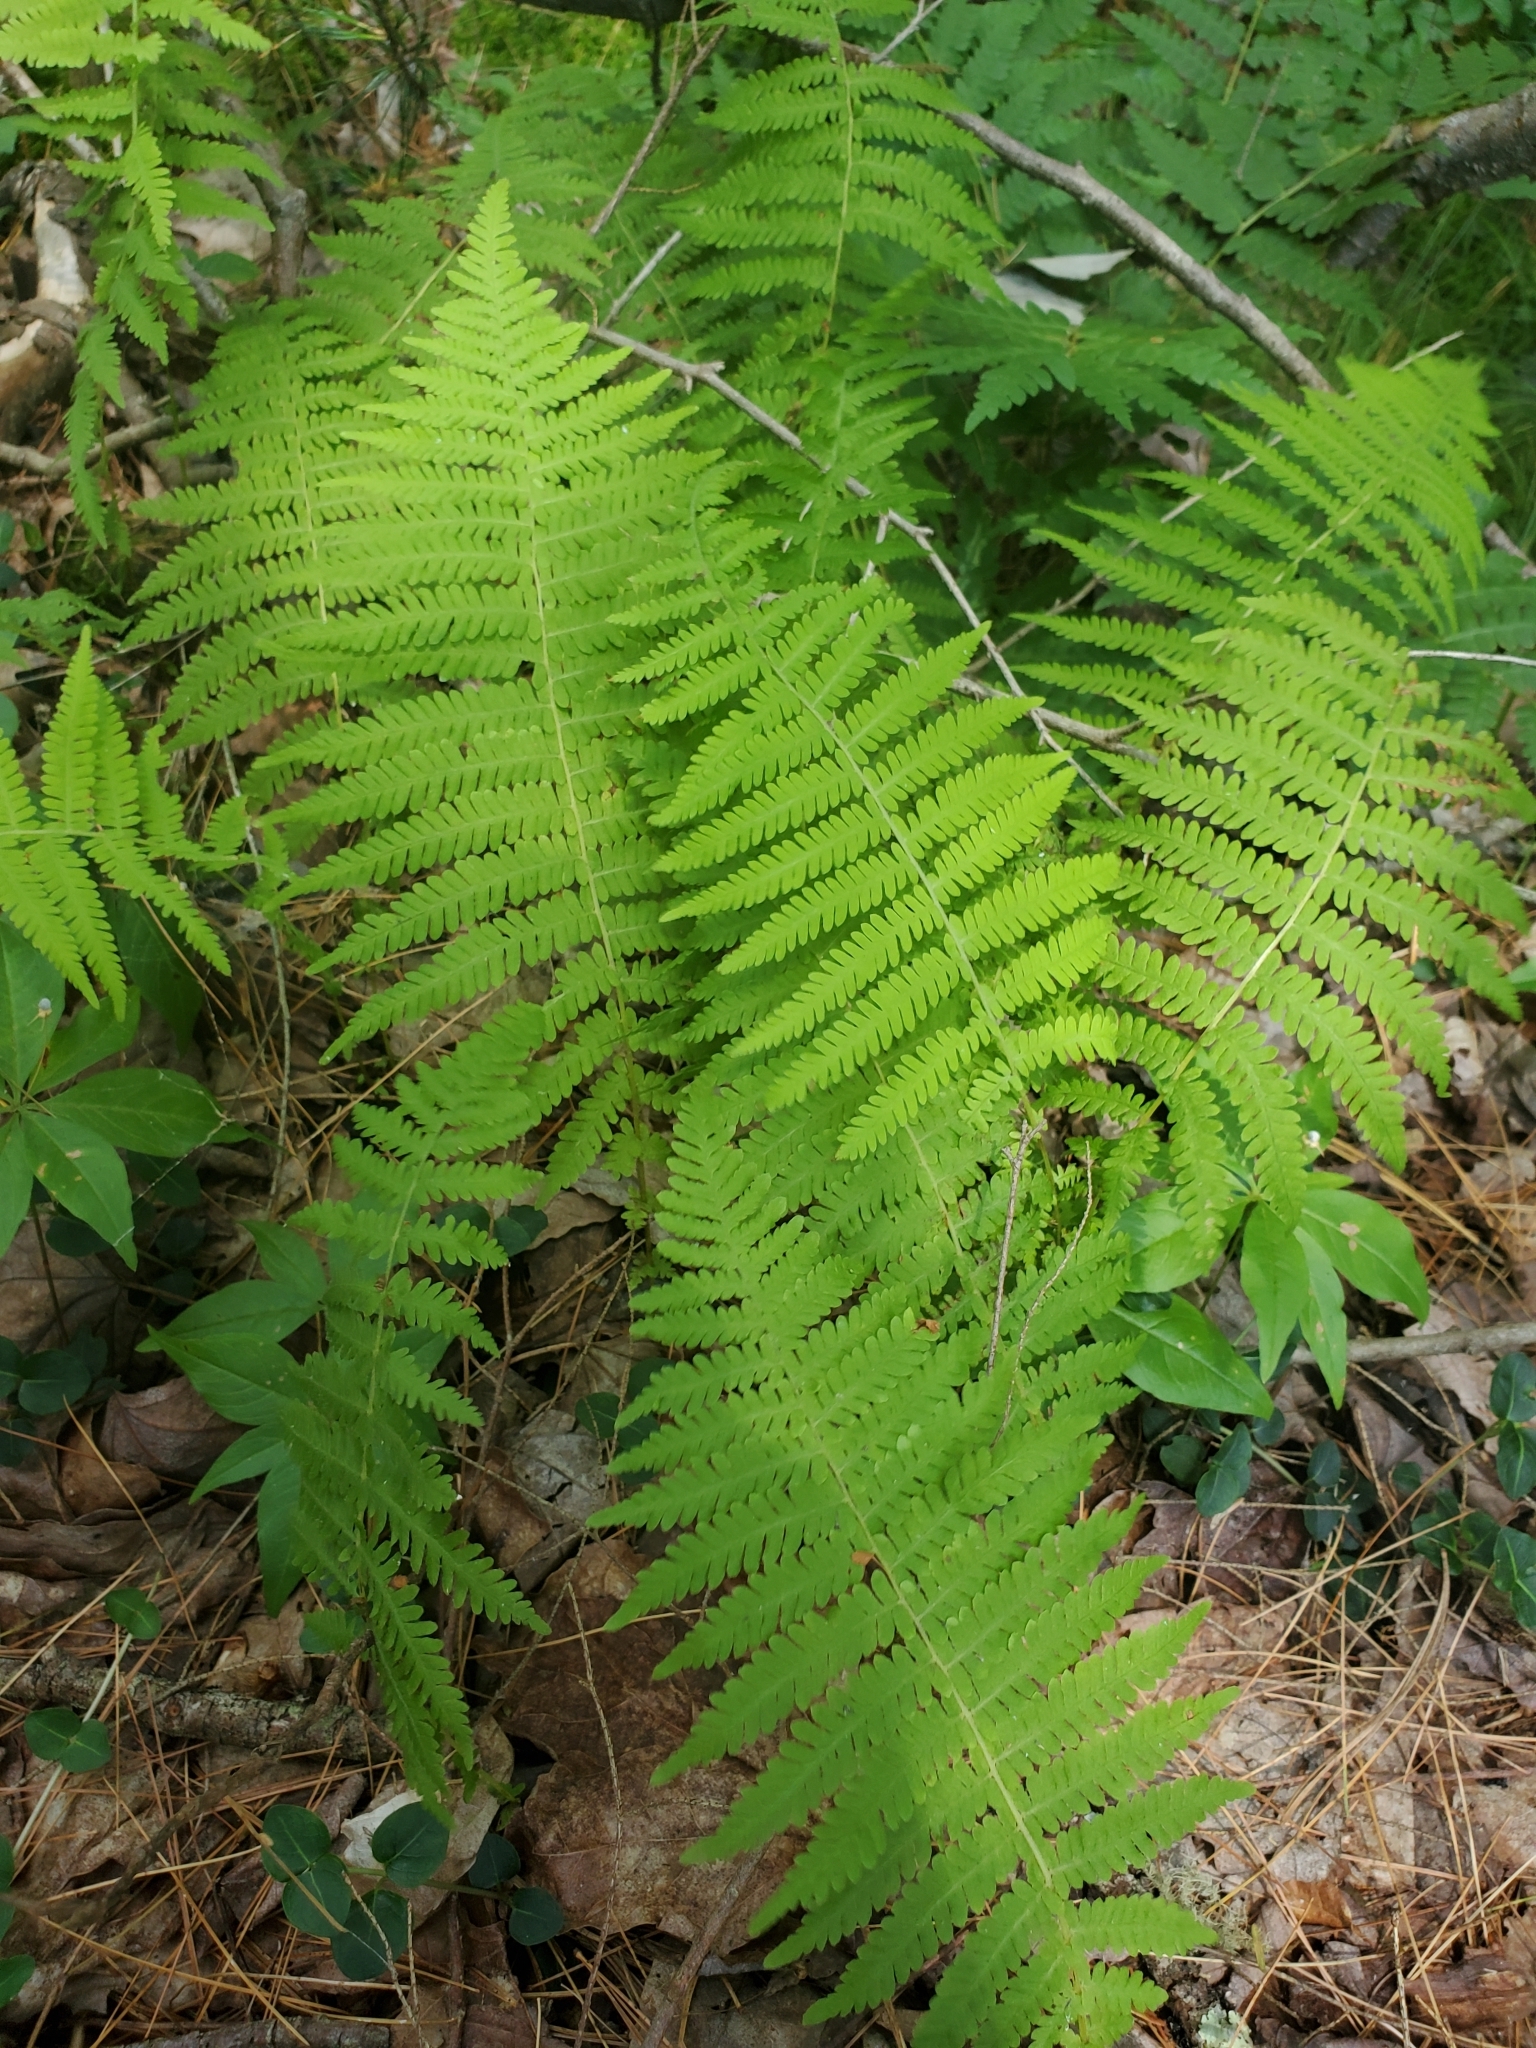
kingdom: Plantae
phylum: Tracheophyta
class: Polypodiopsida
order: Polypodiales
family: Thelypteridaceae
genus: Amauropelta
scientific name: Amauropelta noveboracensis
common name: New york fern
